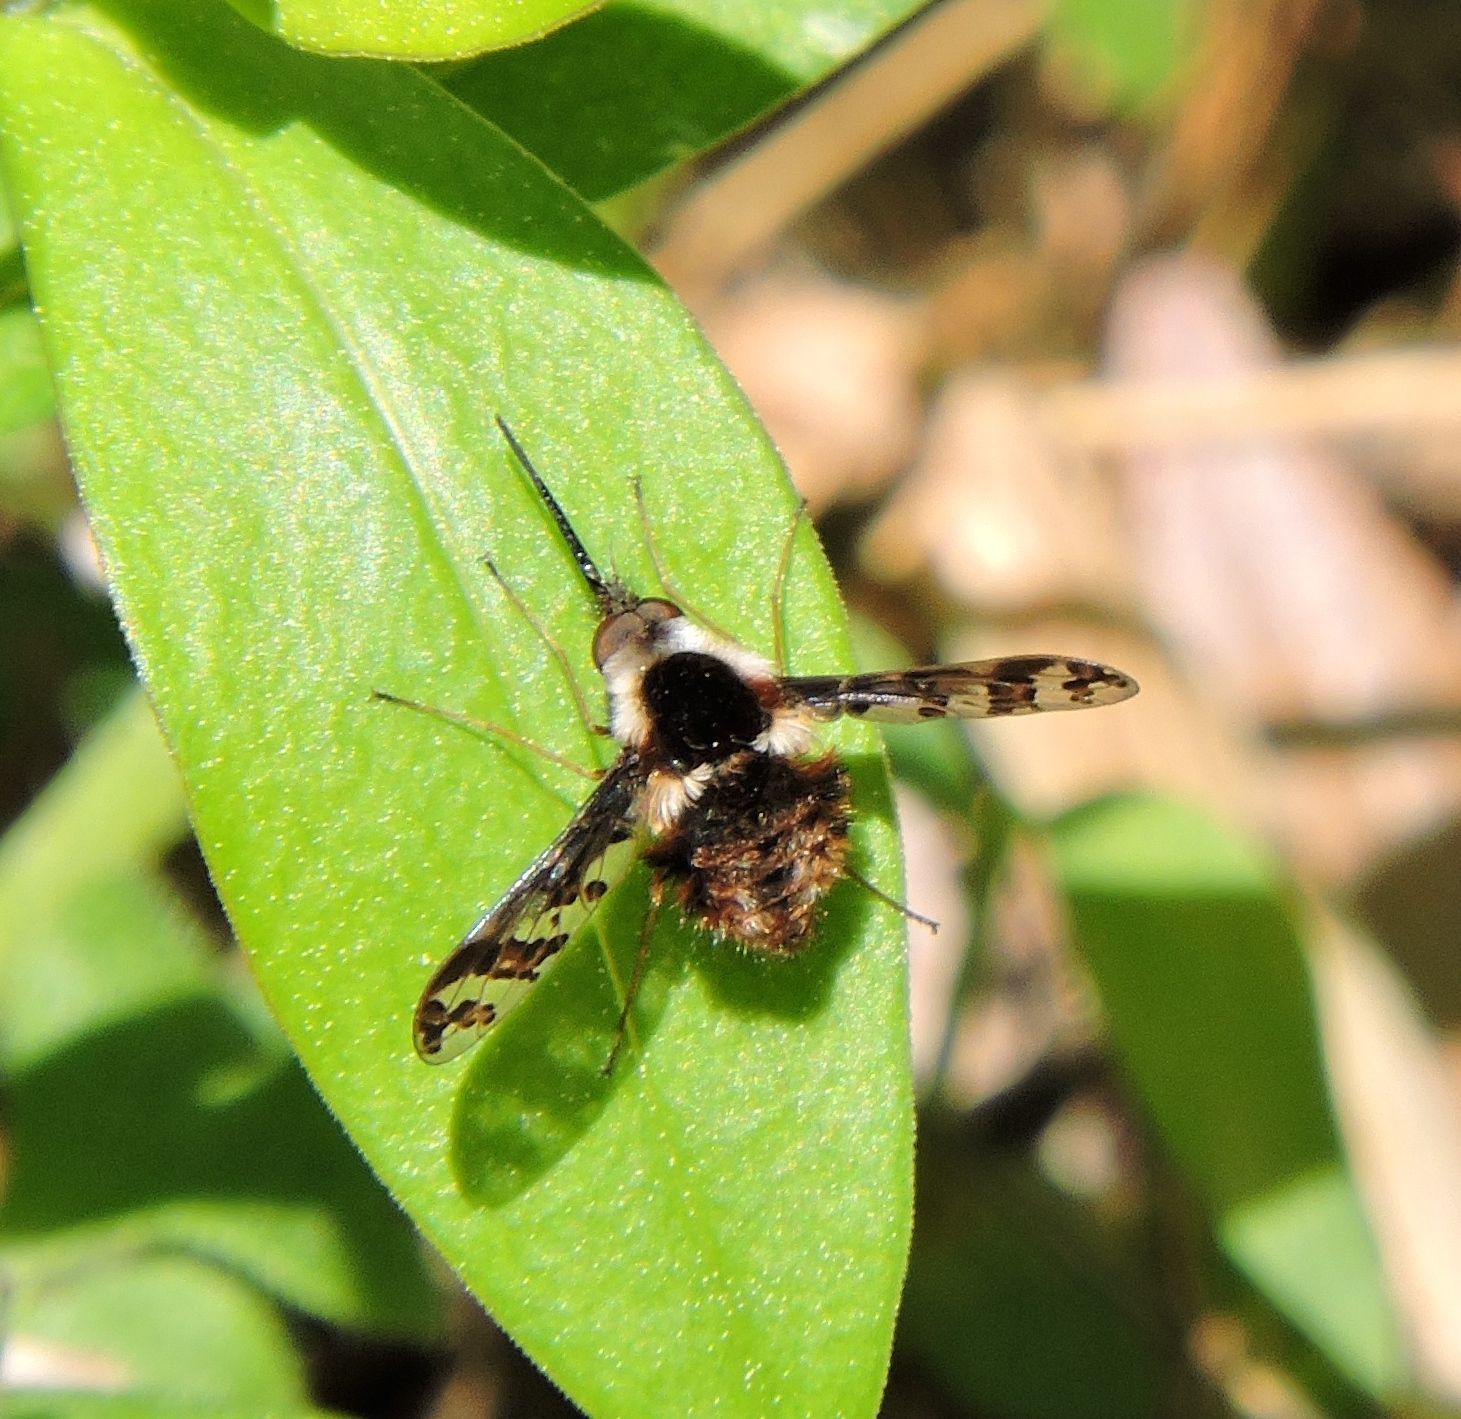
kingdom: Animalia
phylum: Arthropoda
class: Insecta
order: Diptera
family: Bombyliidae
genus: Bombylius
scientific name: Bombylius pulchellus
